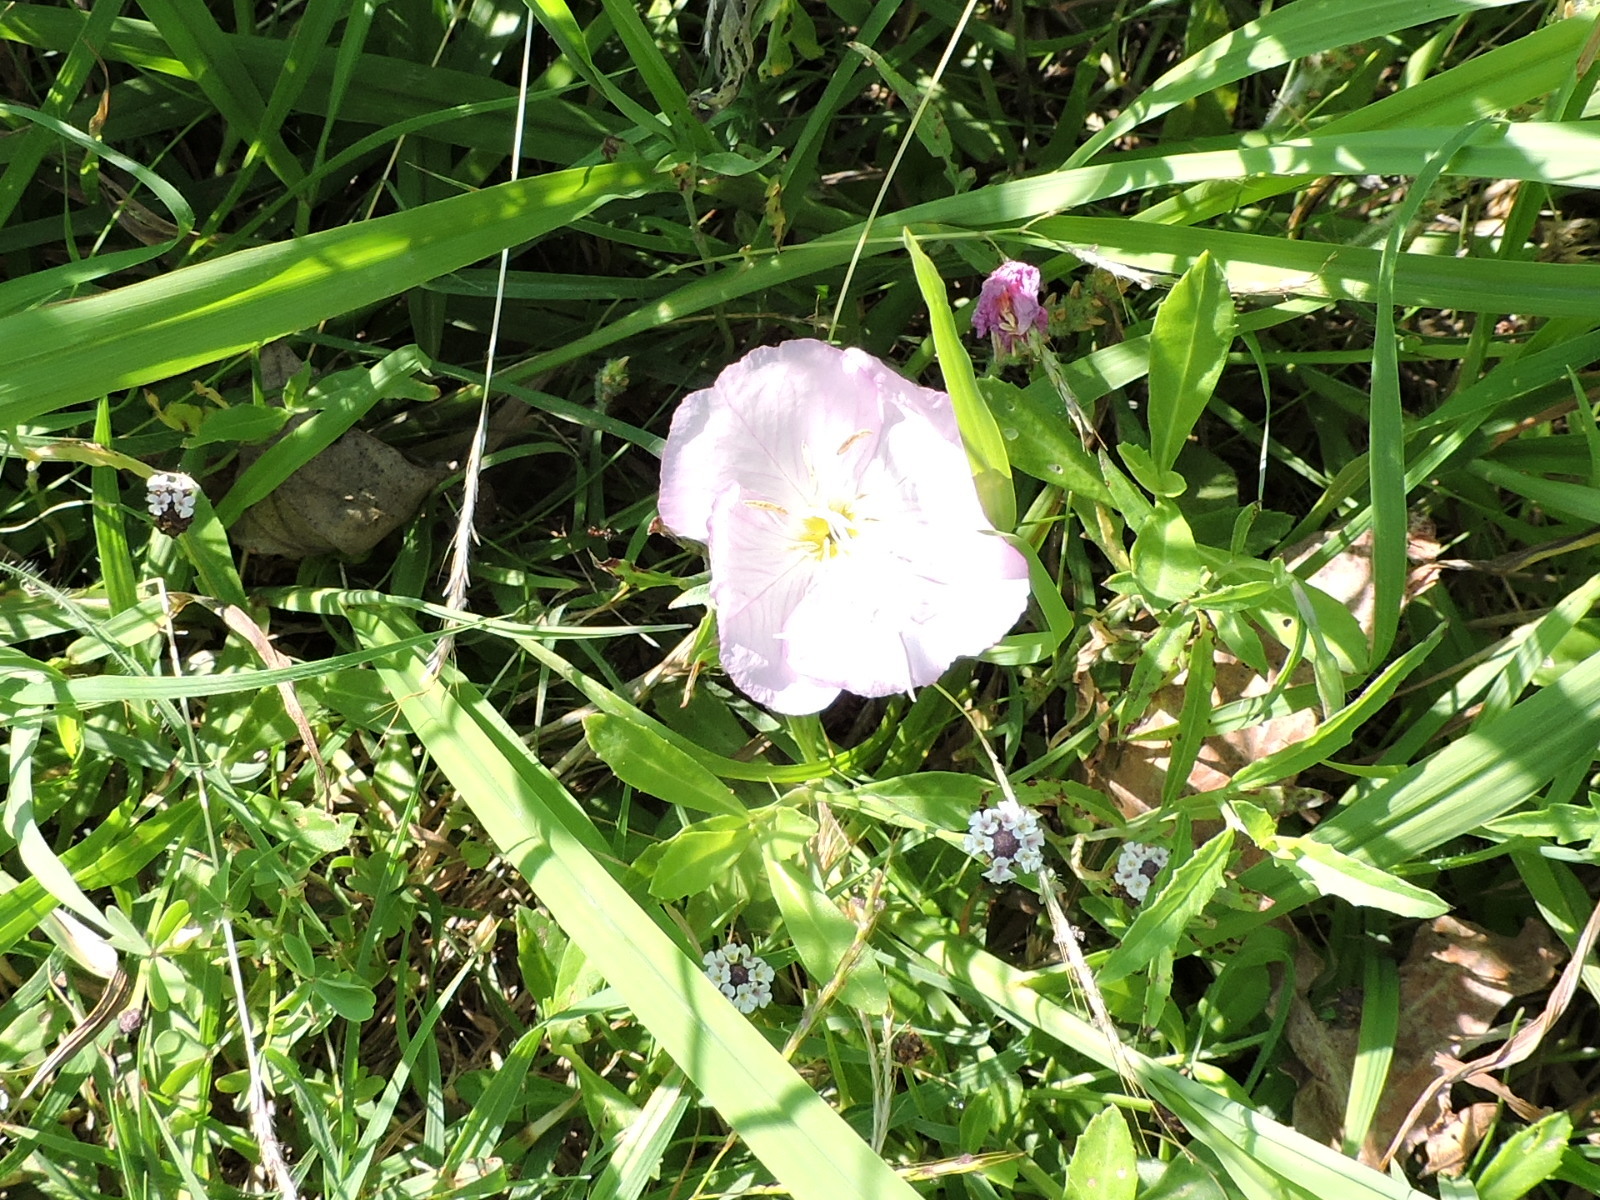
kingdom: Plantae
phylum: Tracheophyta
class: Magnoliopsida
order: Myrtales
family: Onagraceae
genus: Oenothera
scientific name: Oenothera speciosa
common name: White evening-primrose
